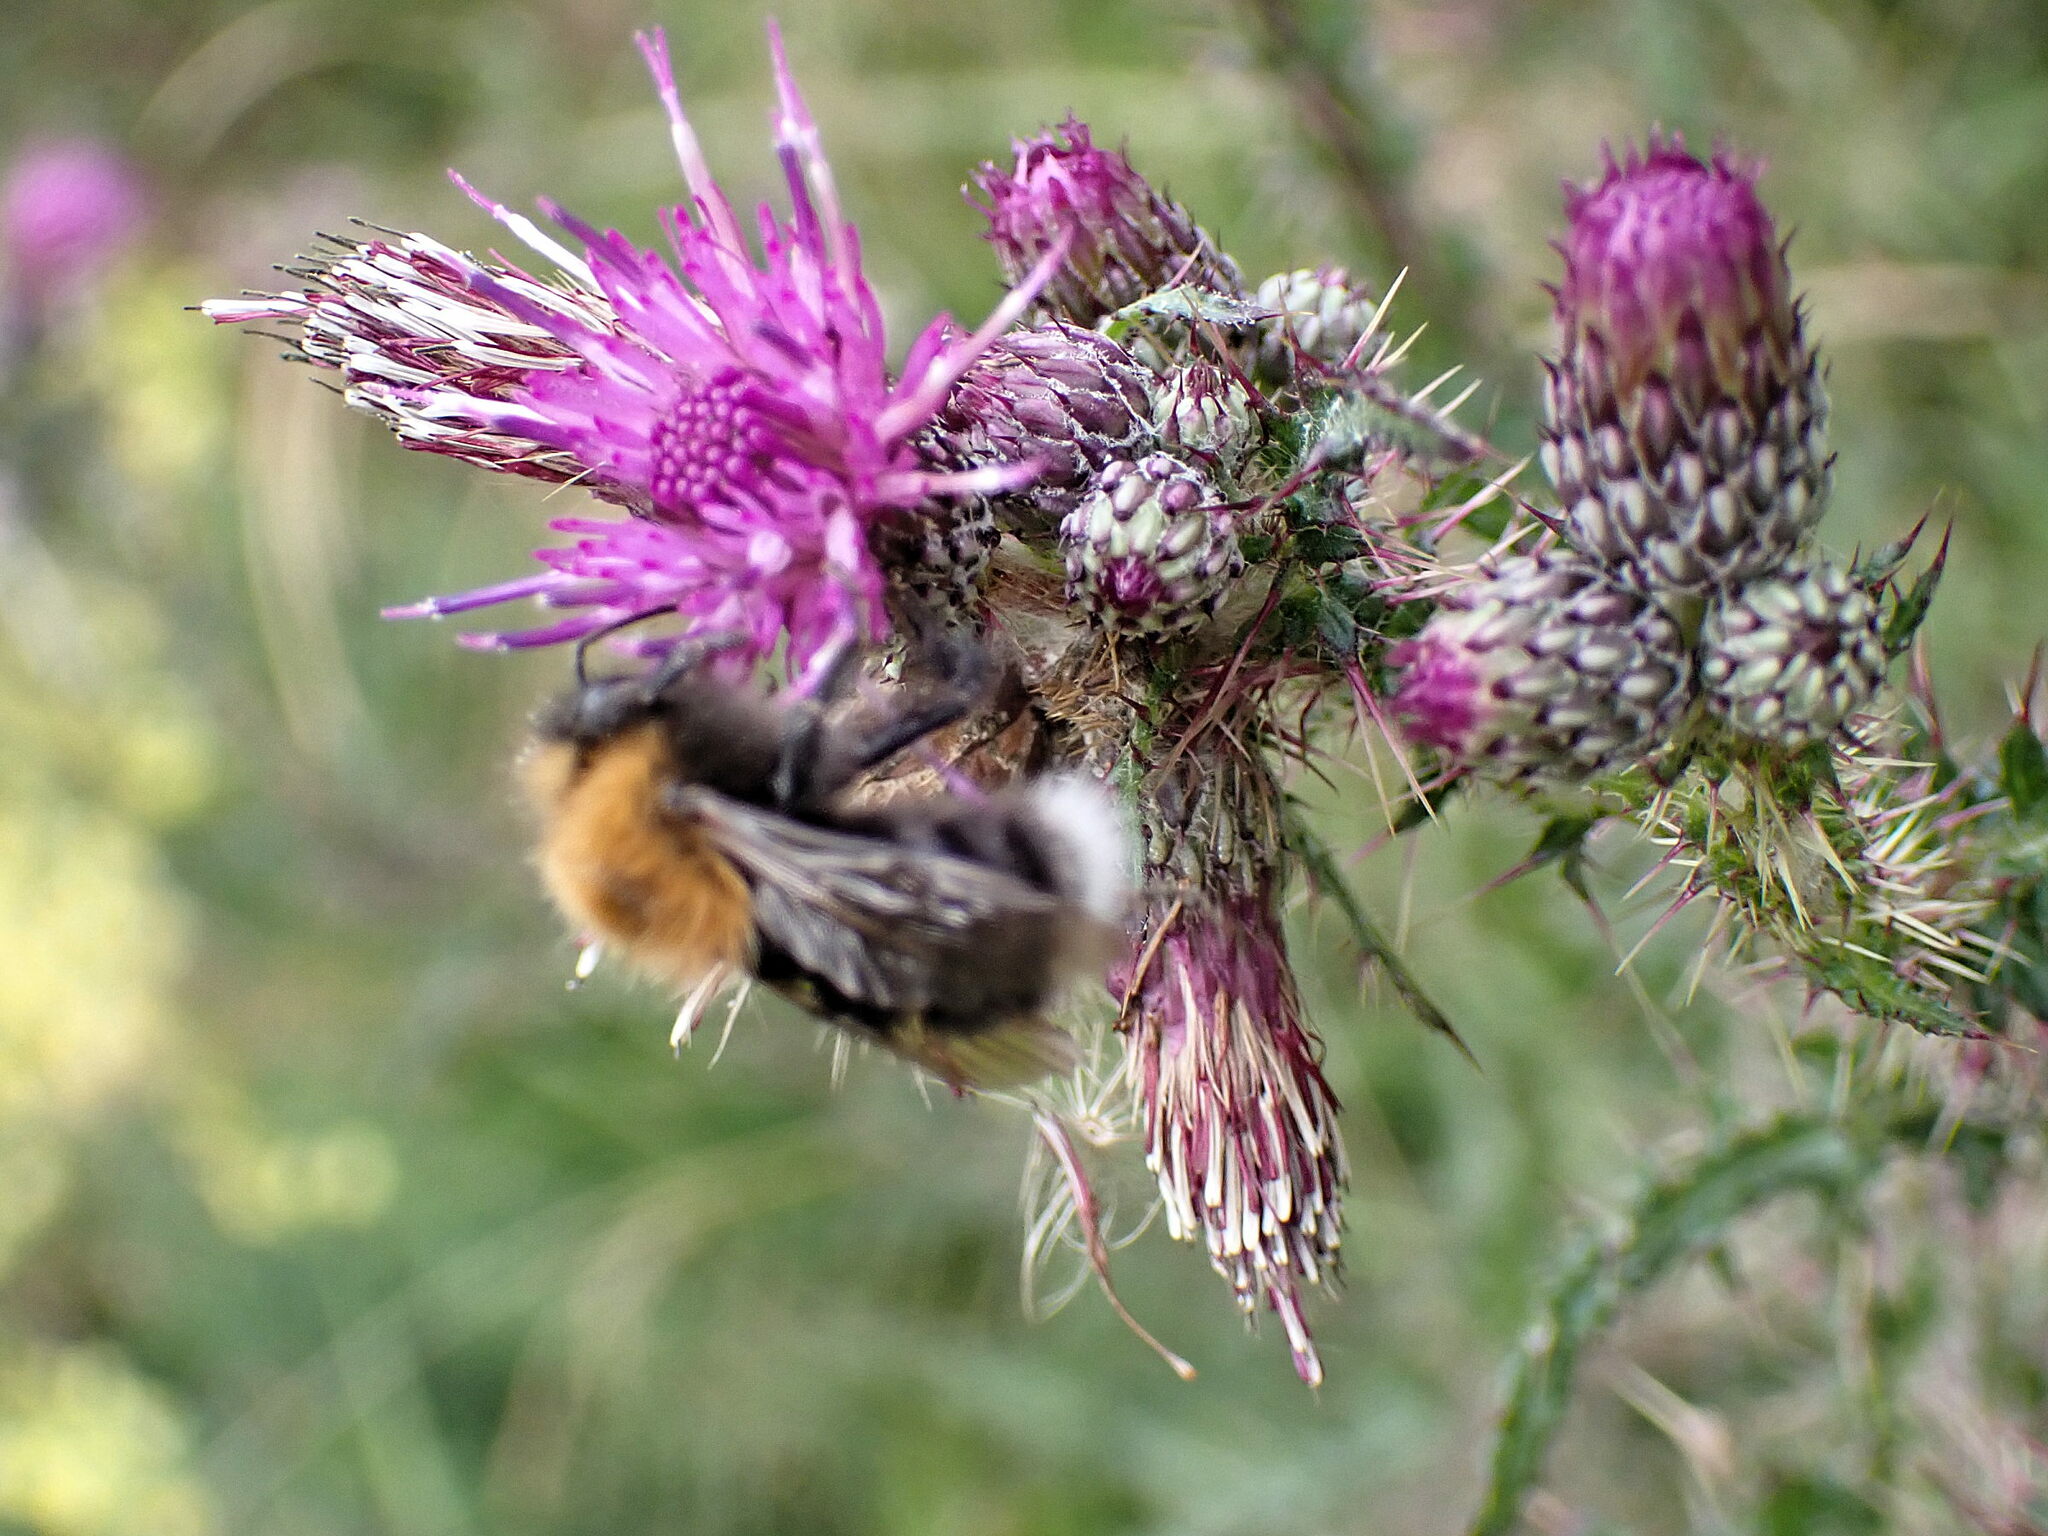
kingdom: Animalia
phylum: Arthropoda
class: Insecta
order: Hymenoptera
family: Apidae
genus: Bombus
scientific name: Bombus hypnorum
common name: New garden bumblebee
